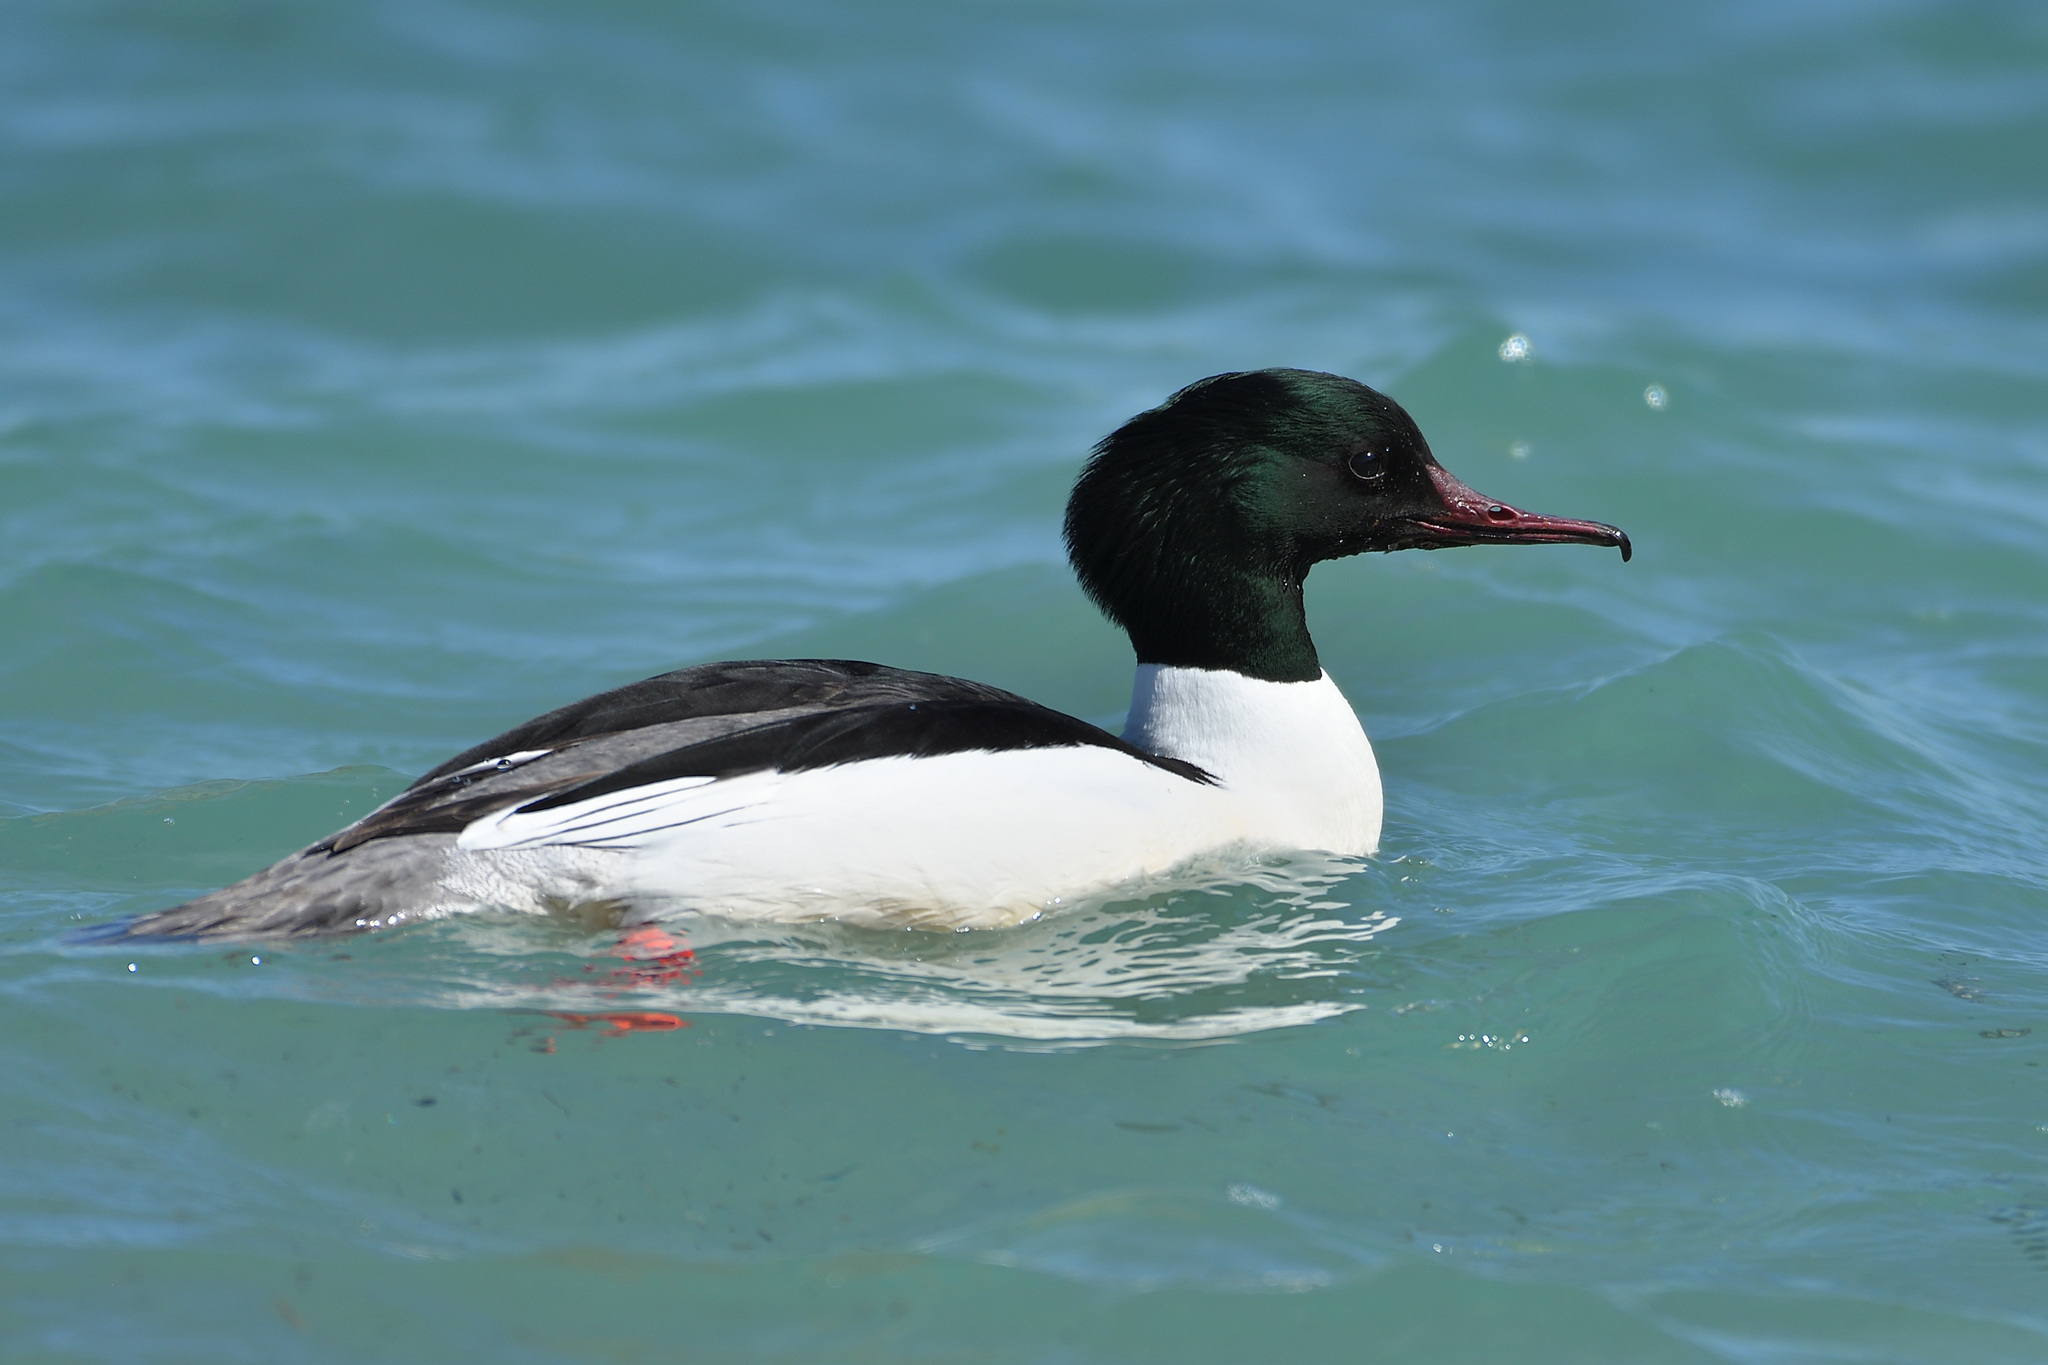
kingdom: Animalia
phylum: Chordata
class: Aves
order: Anseriformes
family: Anatidae
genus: Mergus
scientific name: Mergus merganser
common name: Common merganser
